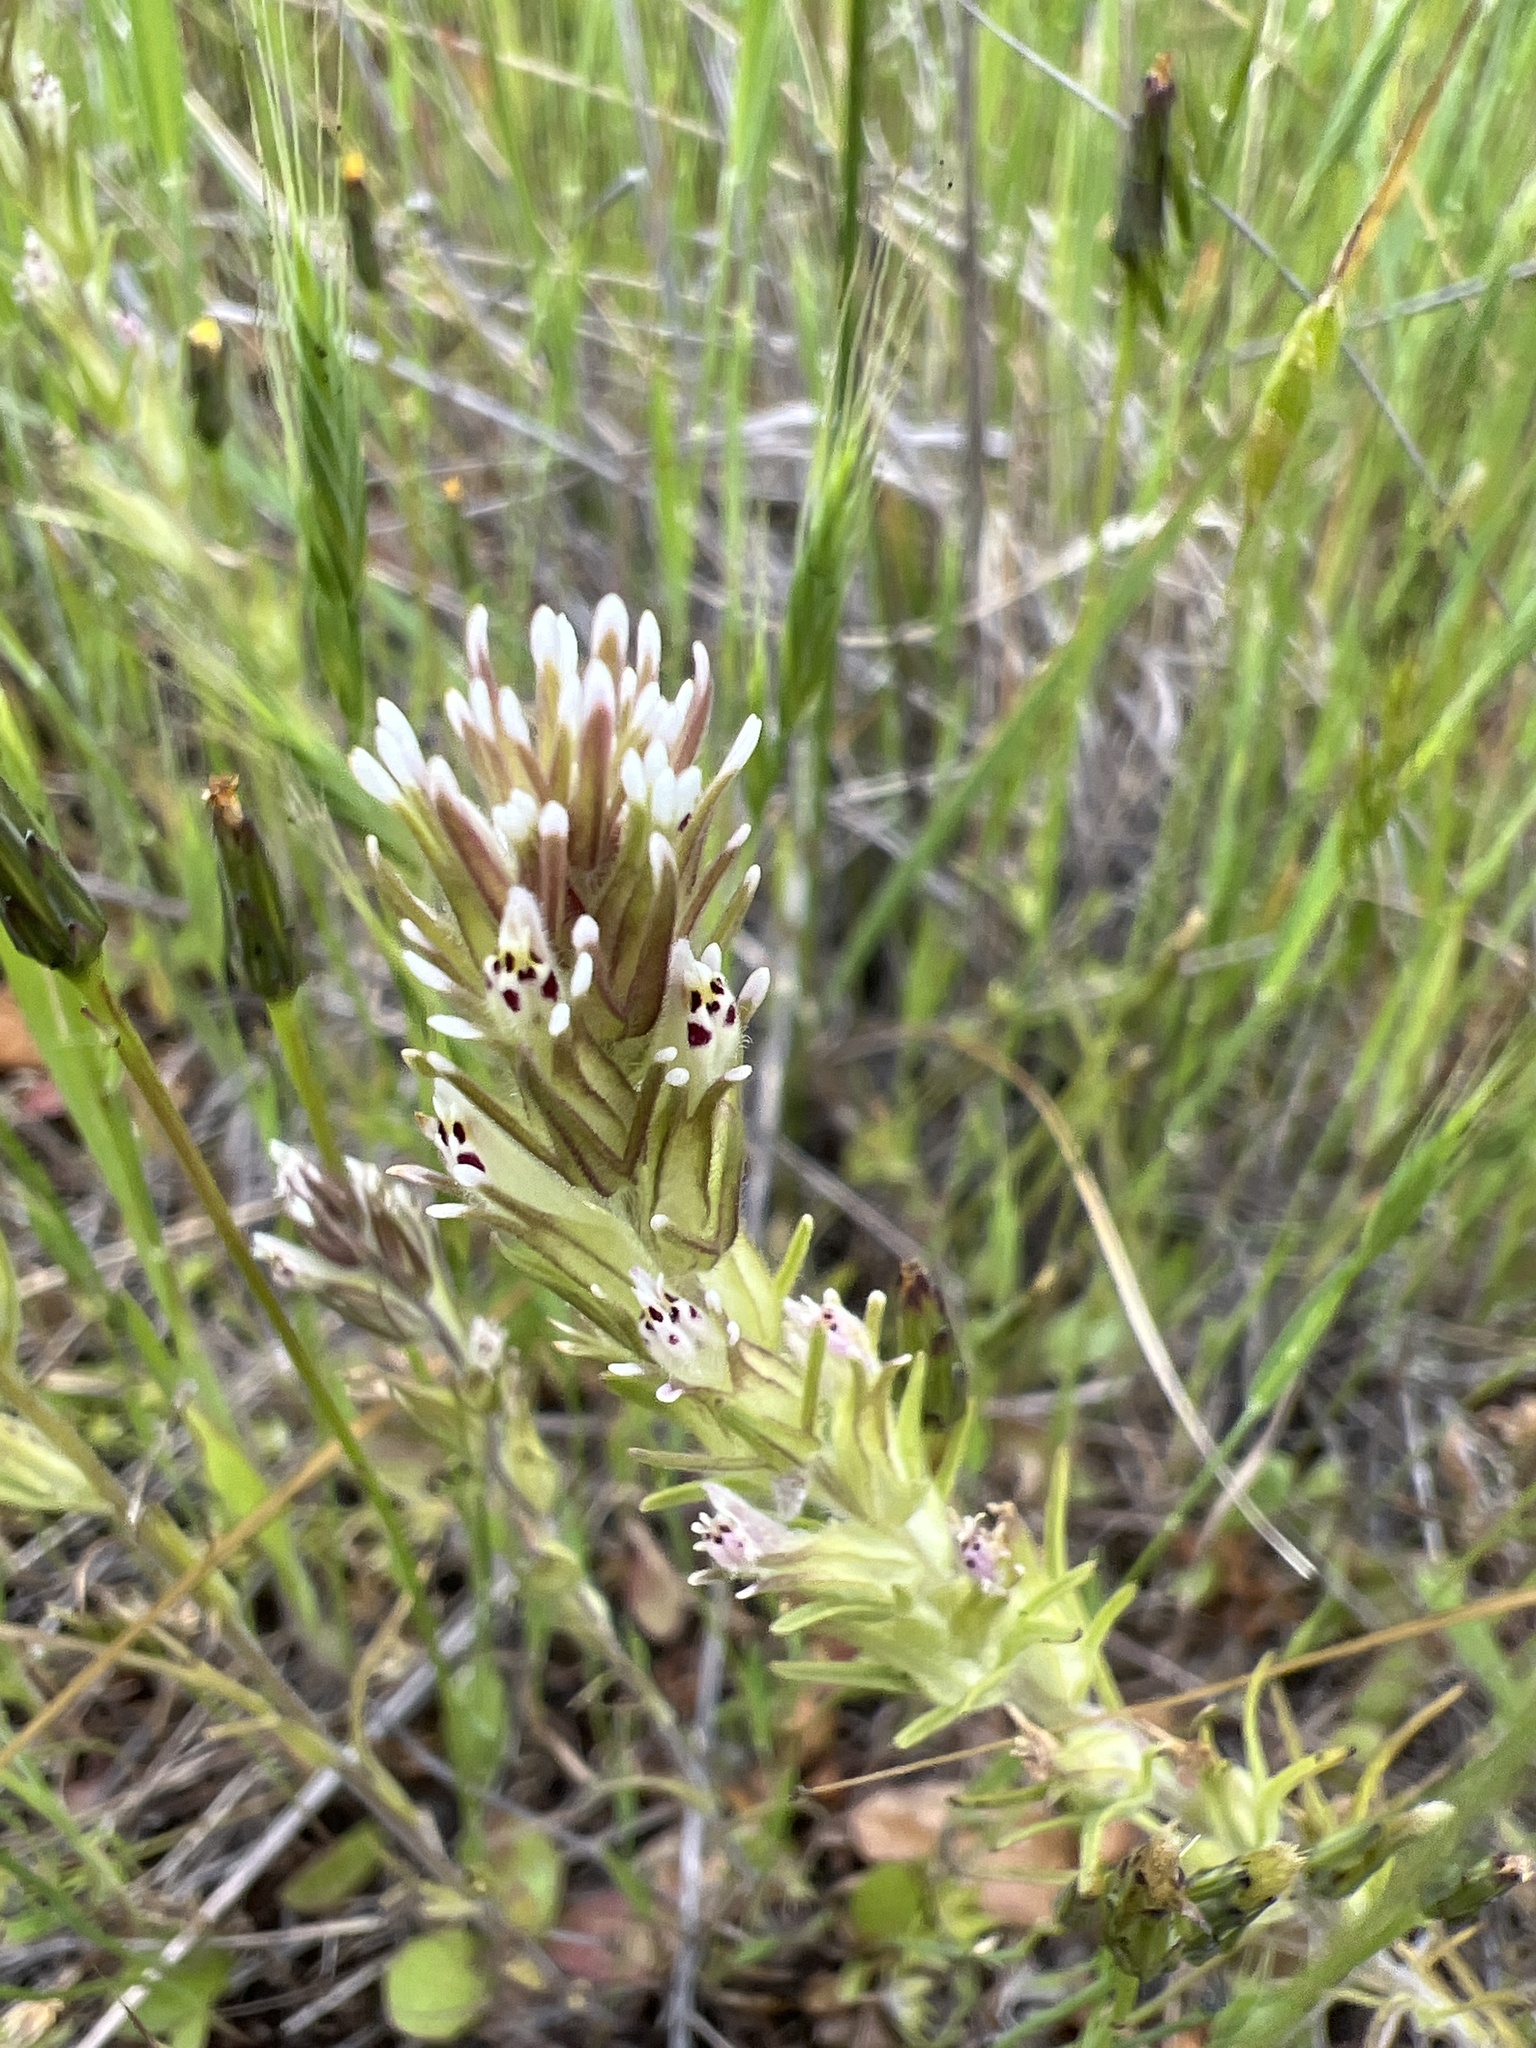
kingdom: Plantae
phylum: Tracheophyta
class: Magnoliopsida
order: Lamiales
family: Orobanchaceae
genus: Castilleja
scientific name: Castilleja attenuata
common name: Valley tassels
